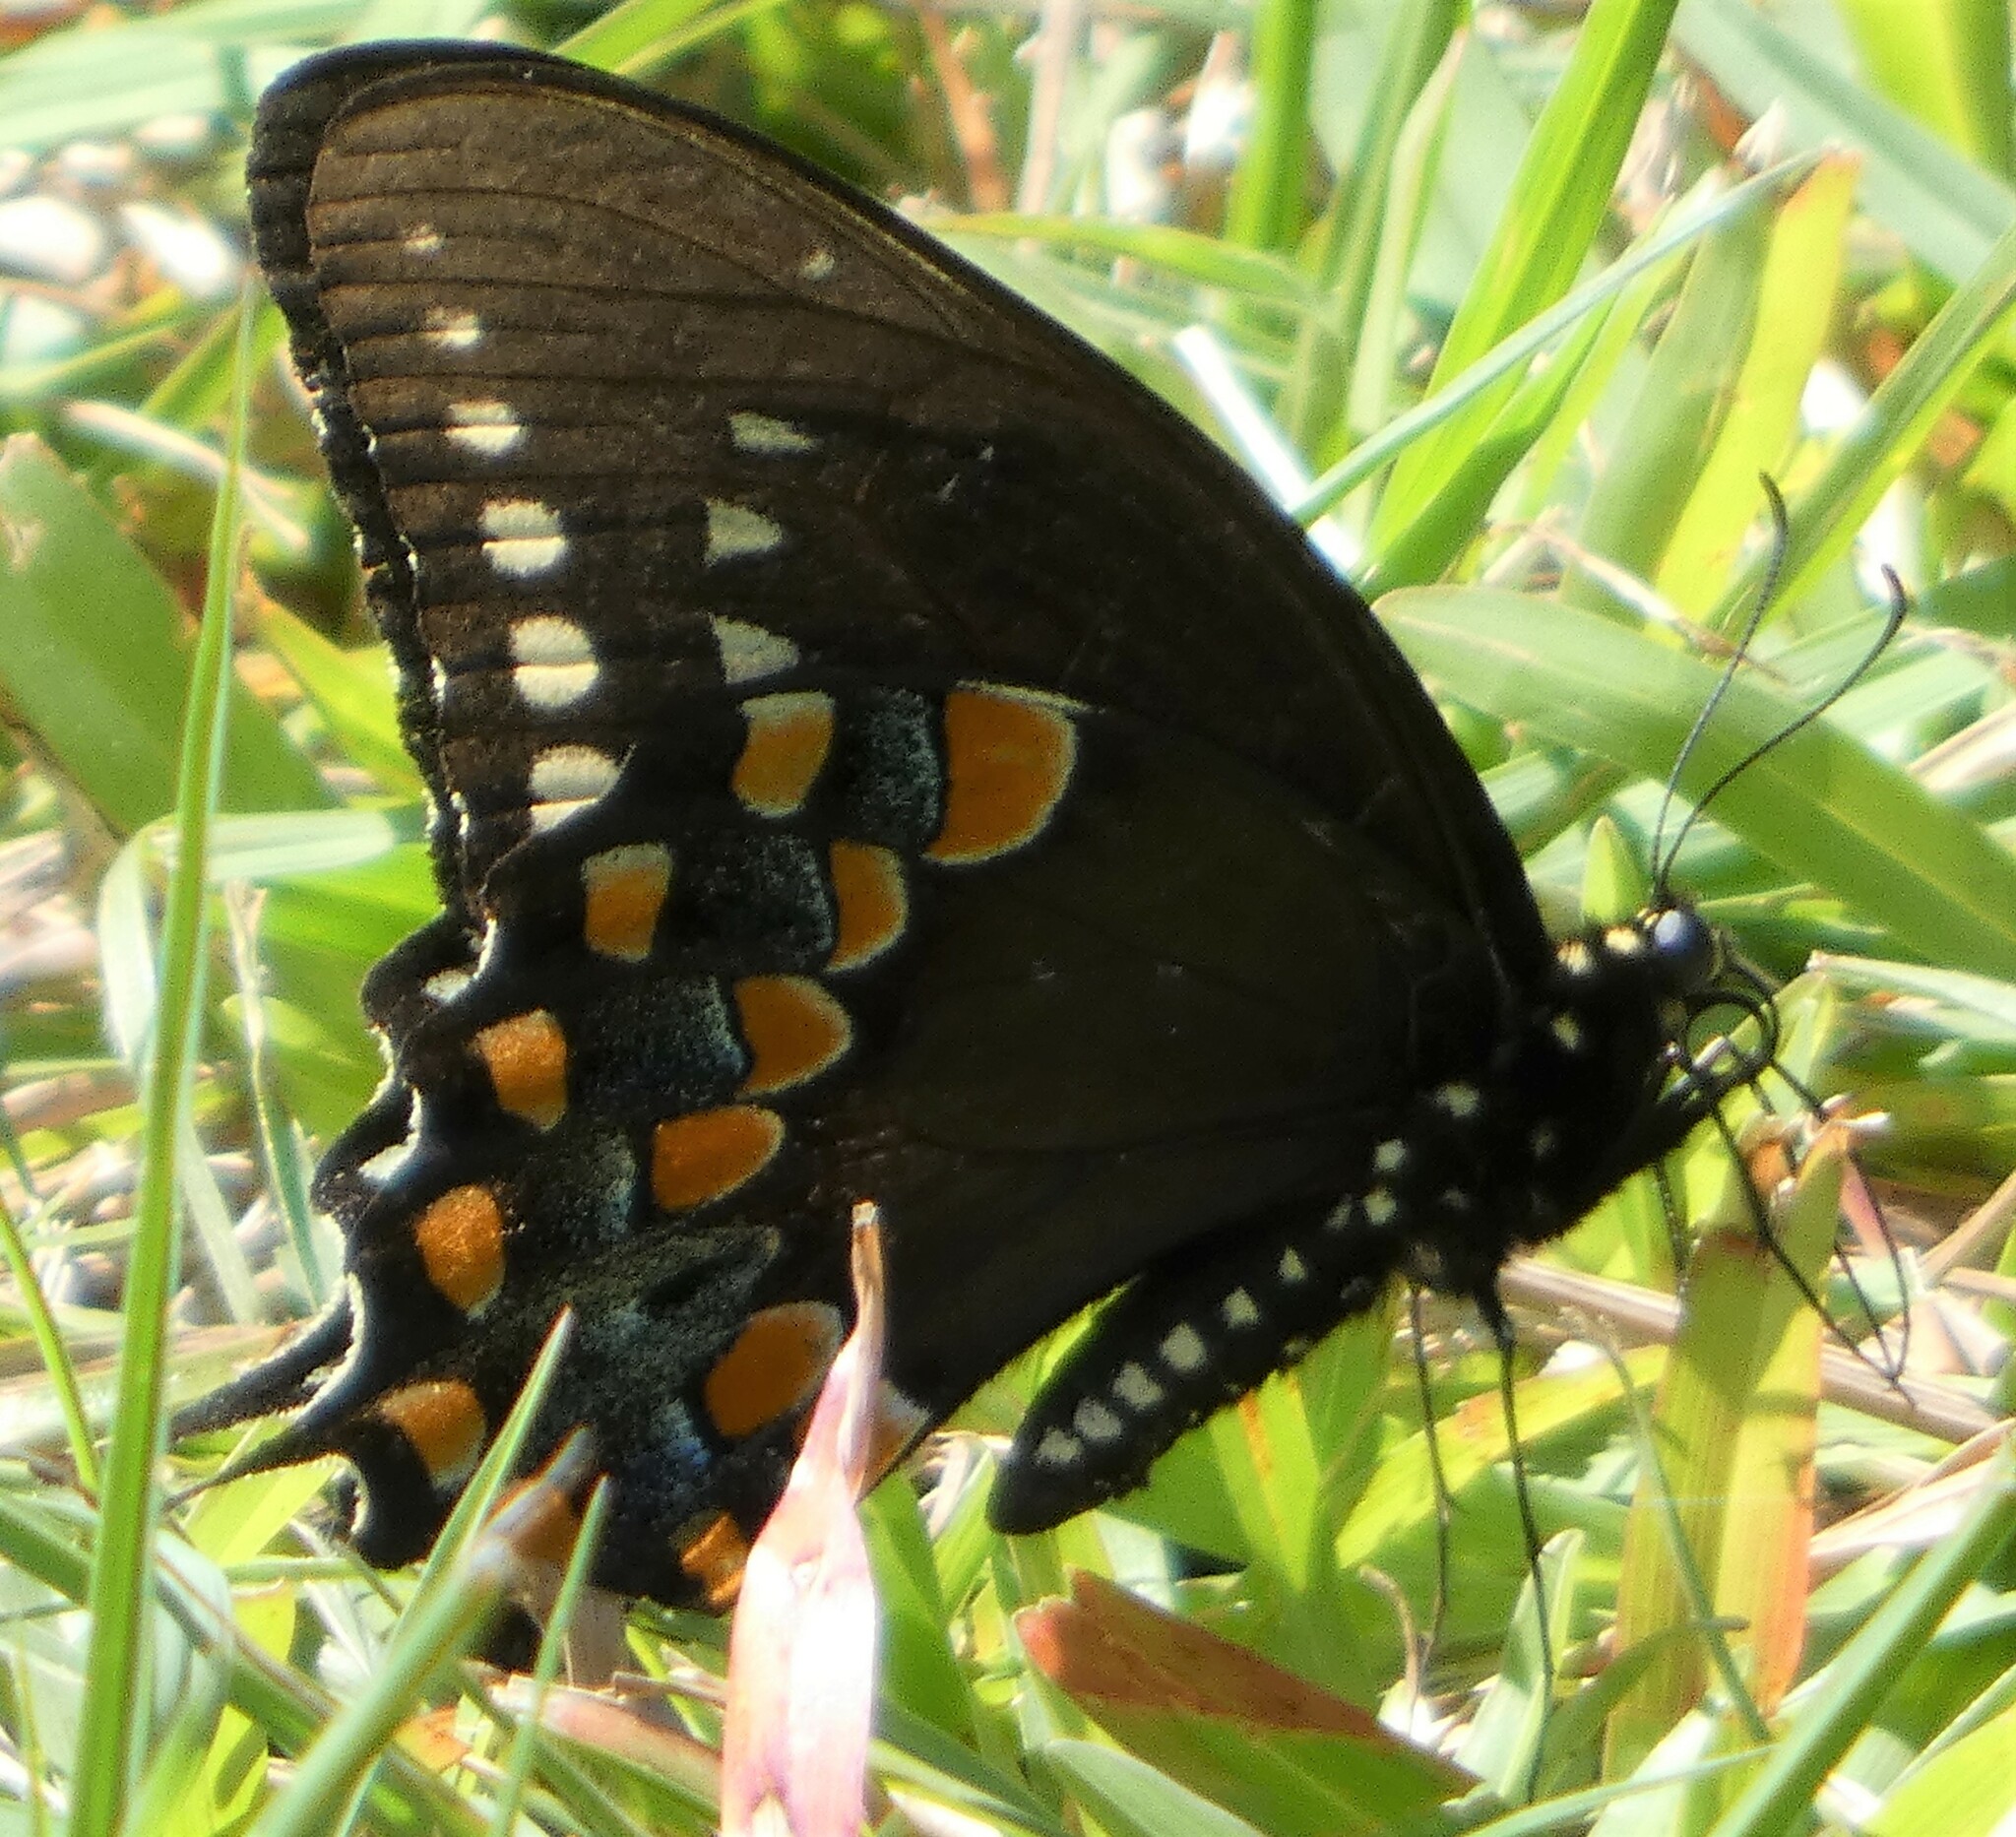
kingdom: Animalia
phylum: Arthropoda
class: Insecta
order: Lepidoptera
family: Papilionidae
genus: Papilio
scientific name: Papilio troilus
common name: Spicebush swallowtail
